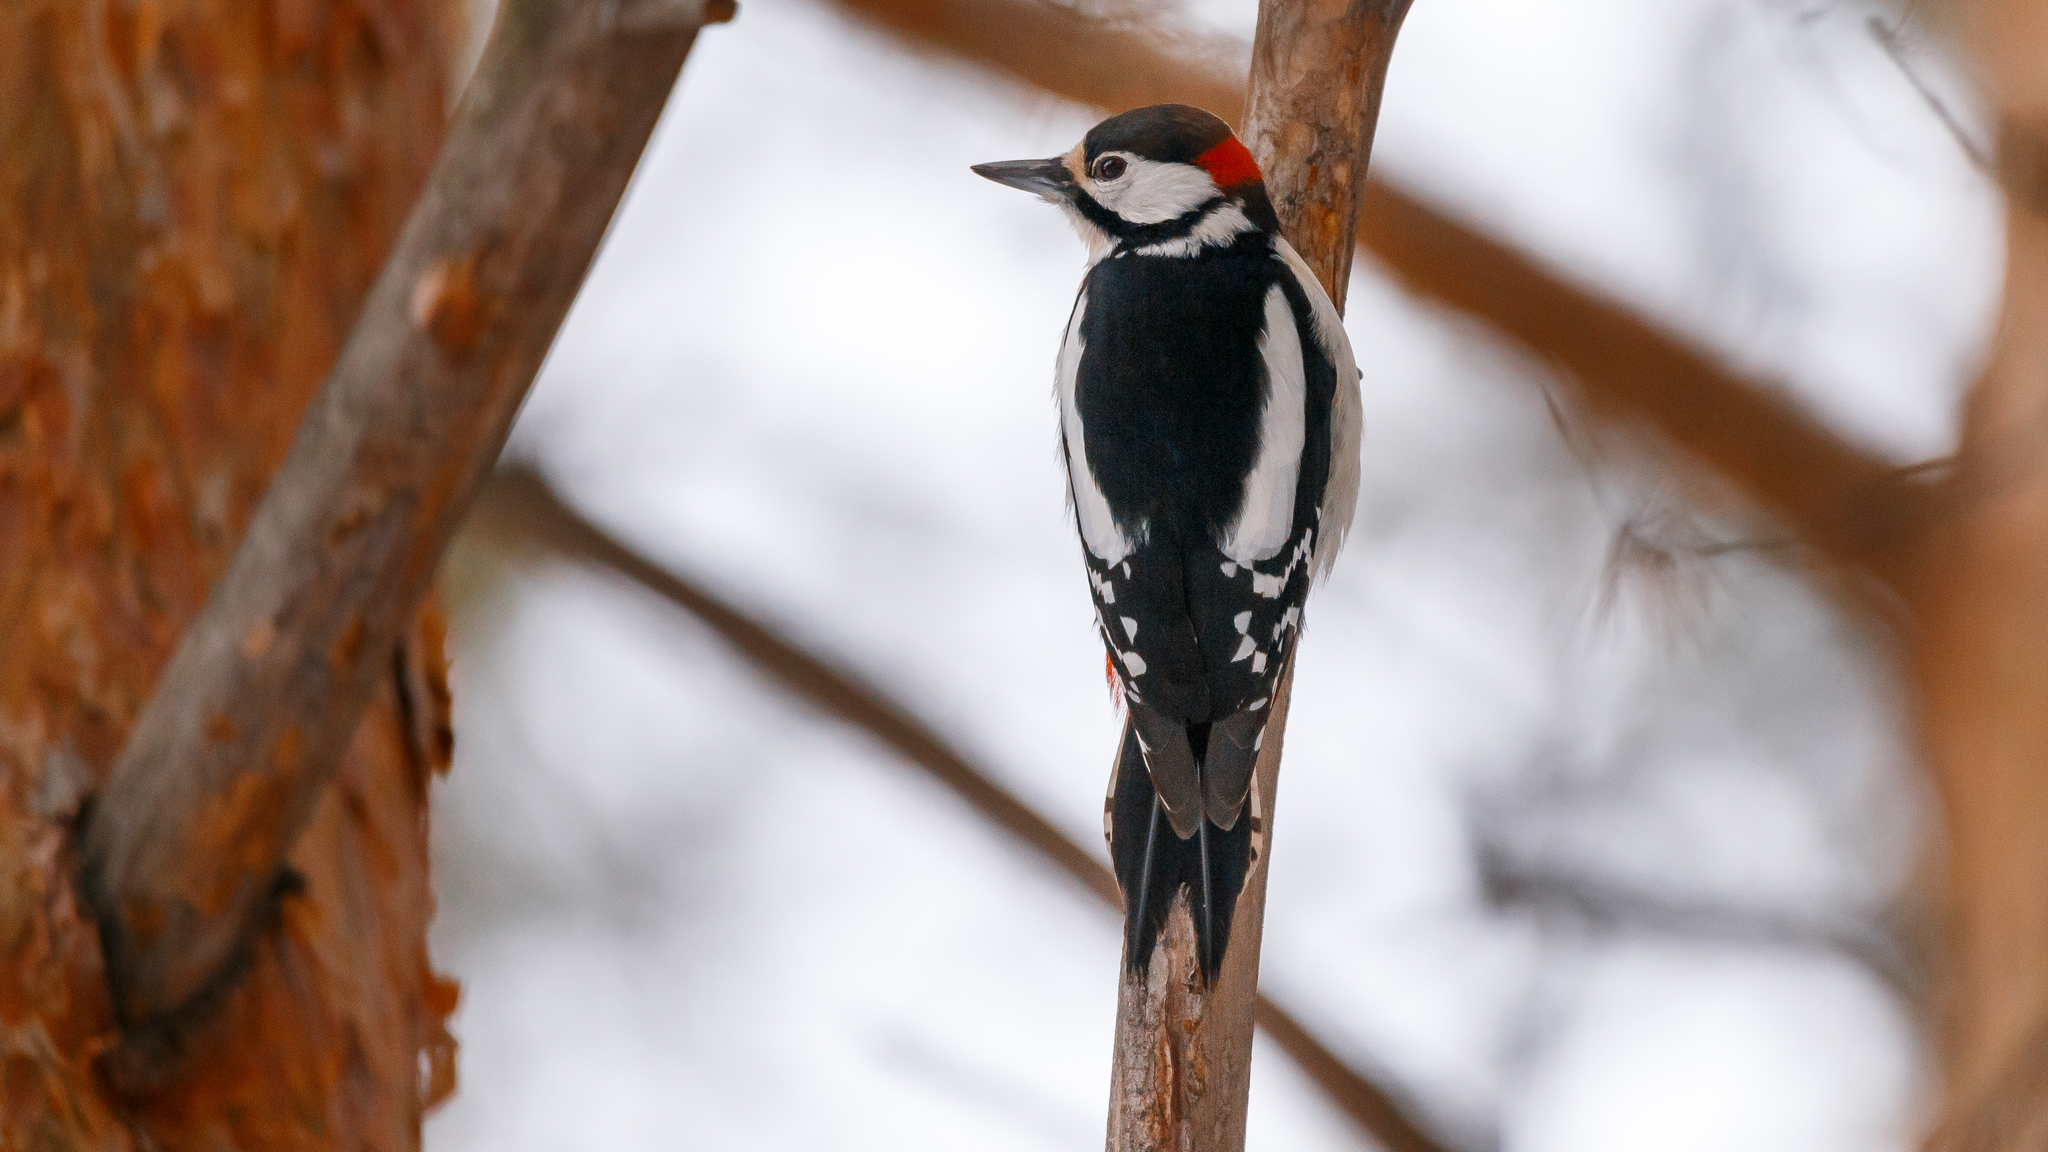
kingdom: Animalia
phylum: Chordata
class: Aves
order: Piciformes
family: Picidae
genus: Dendrocopos
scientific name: Dendrocopos major
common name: Great spotted woodpecker
